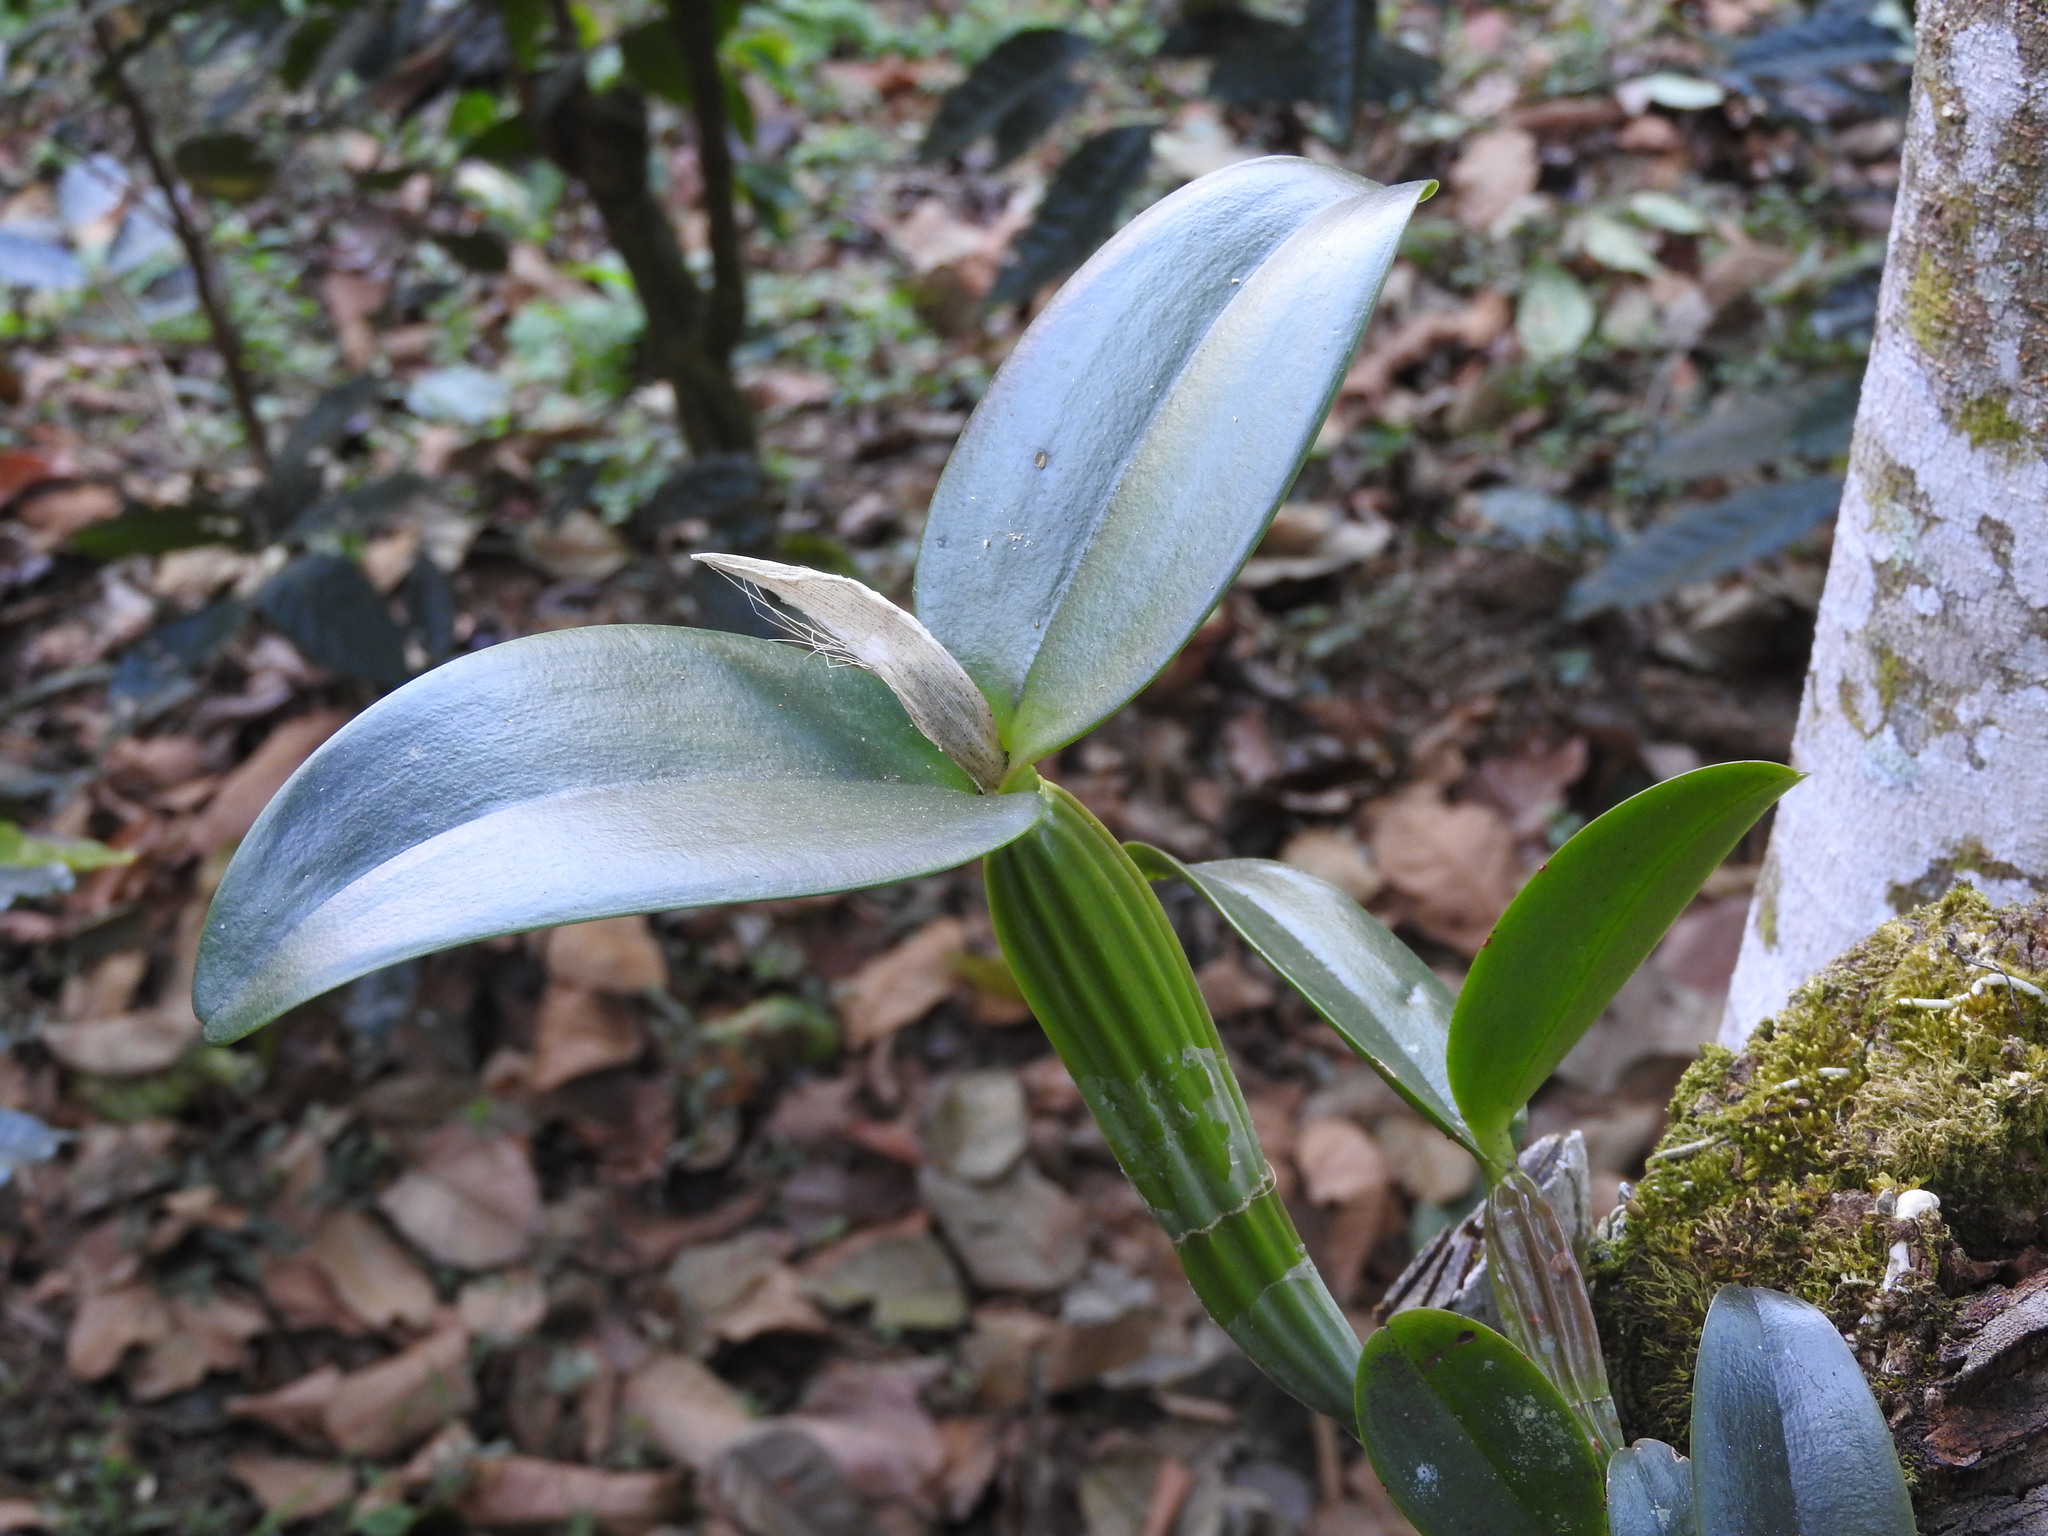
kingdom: Plantae
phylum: Tracheophyta
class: Liliopsida
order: Asparagales
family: Orchidaceae
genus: Guarianthe
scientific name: Guarianthe aurantiaca
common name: Orange cattleya
